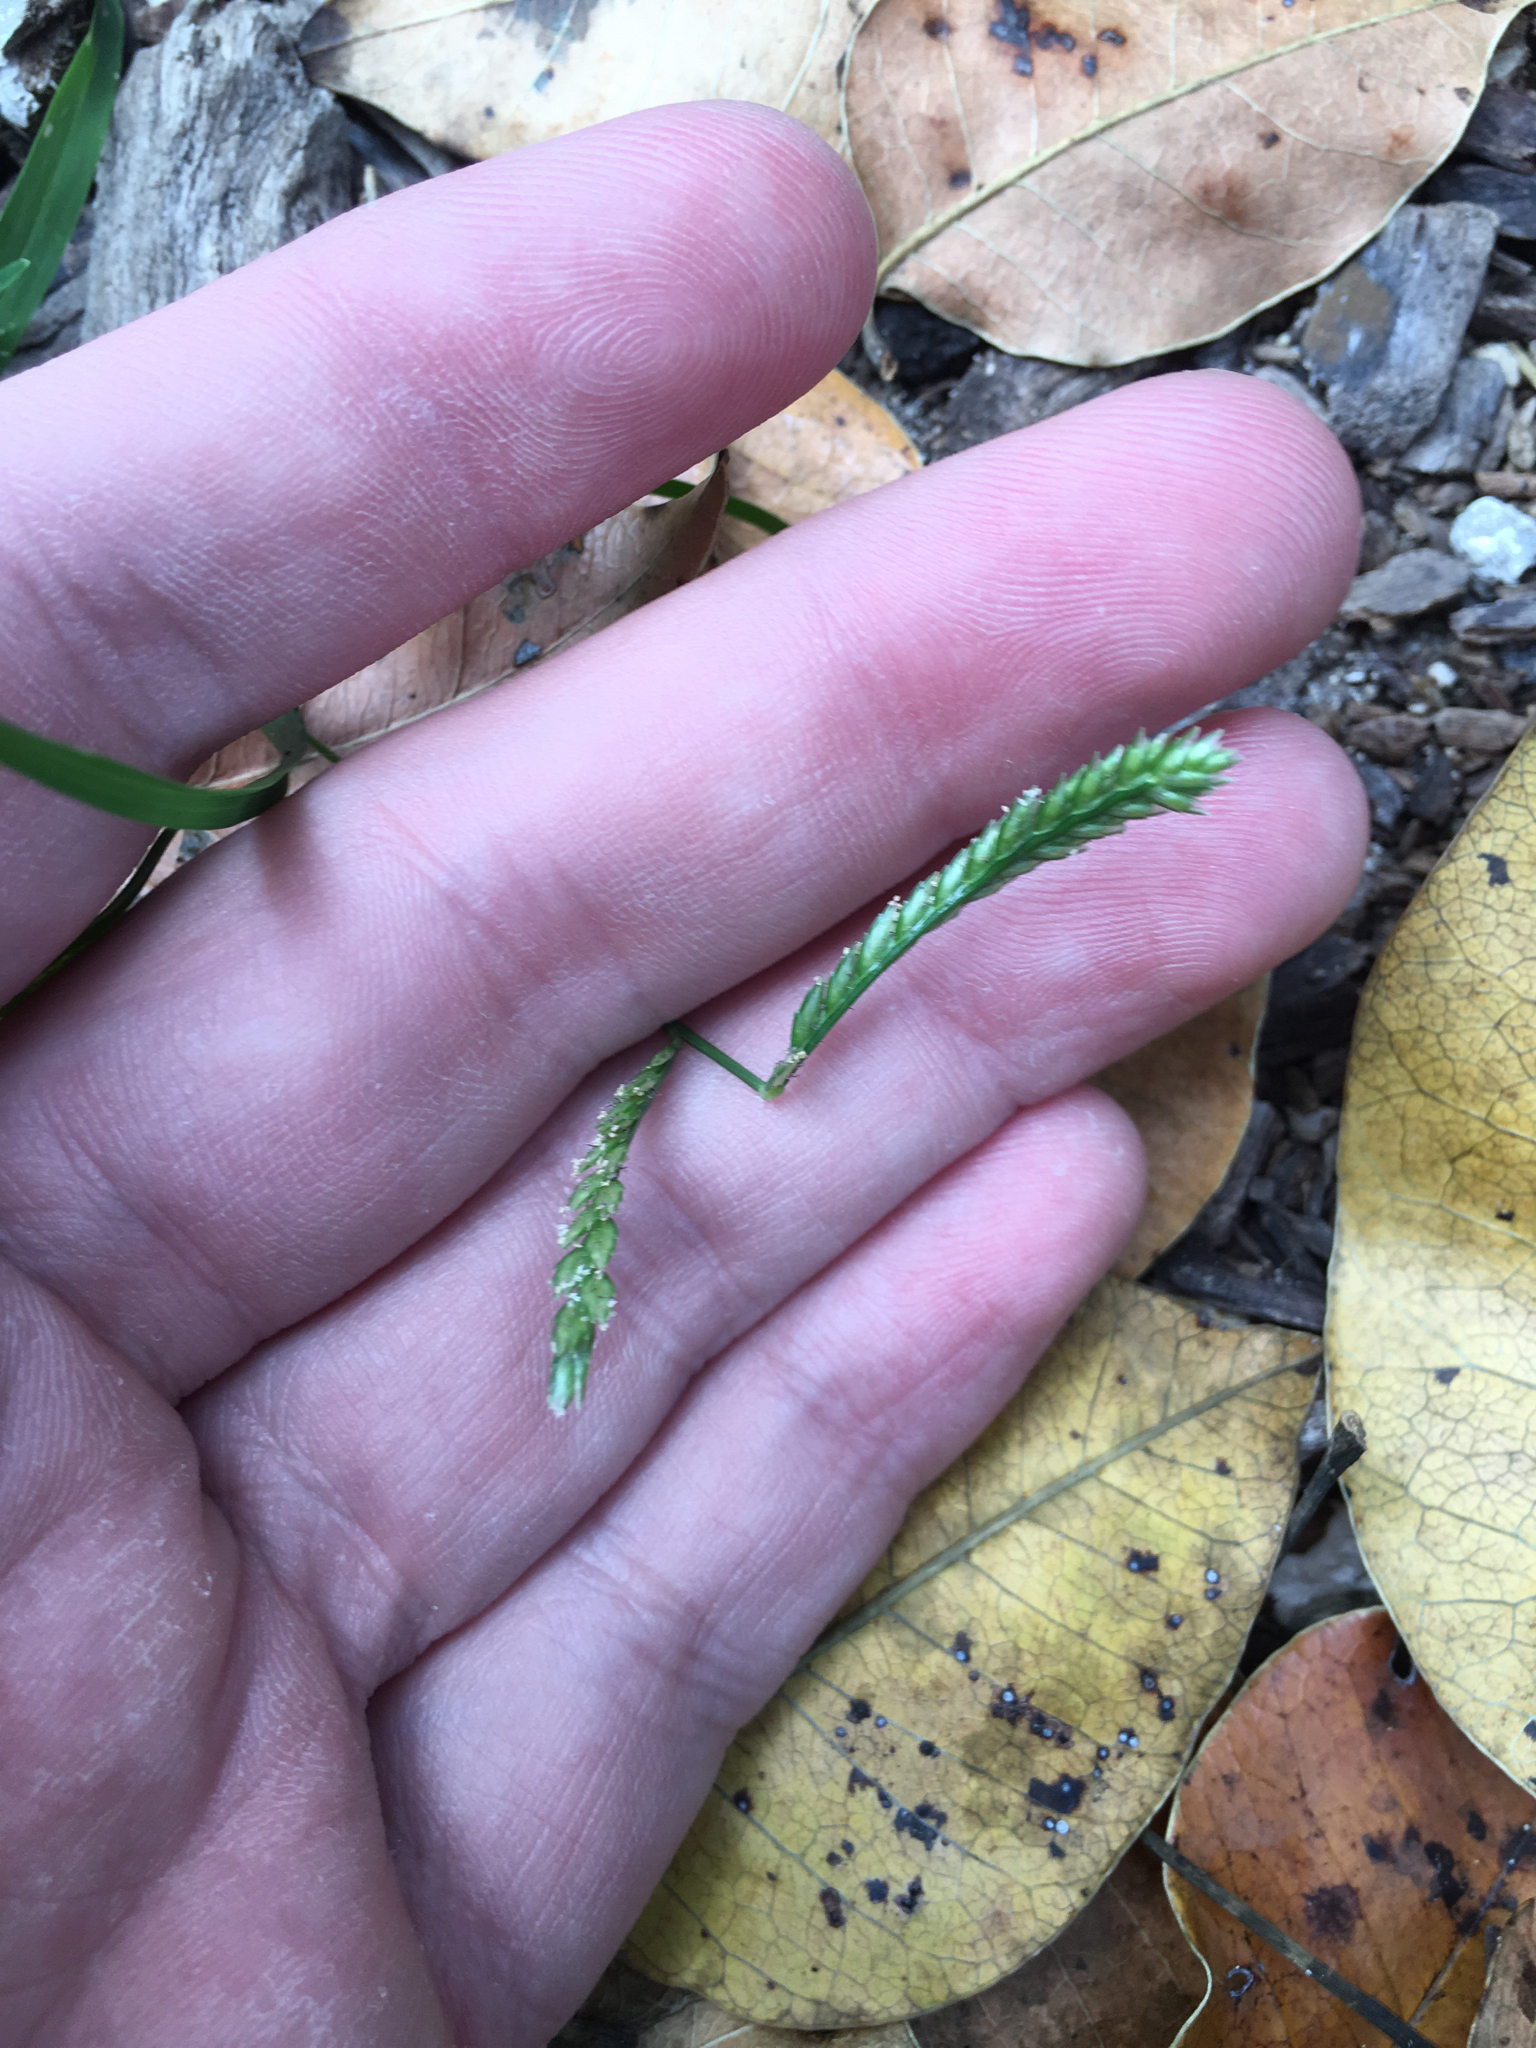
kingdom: Plantae
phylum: Tracheophyta
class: Liliopsida
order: Poales
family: Poaceae
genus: Eleusine
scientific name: Eleusine indica
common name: Yard-grass
